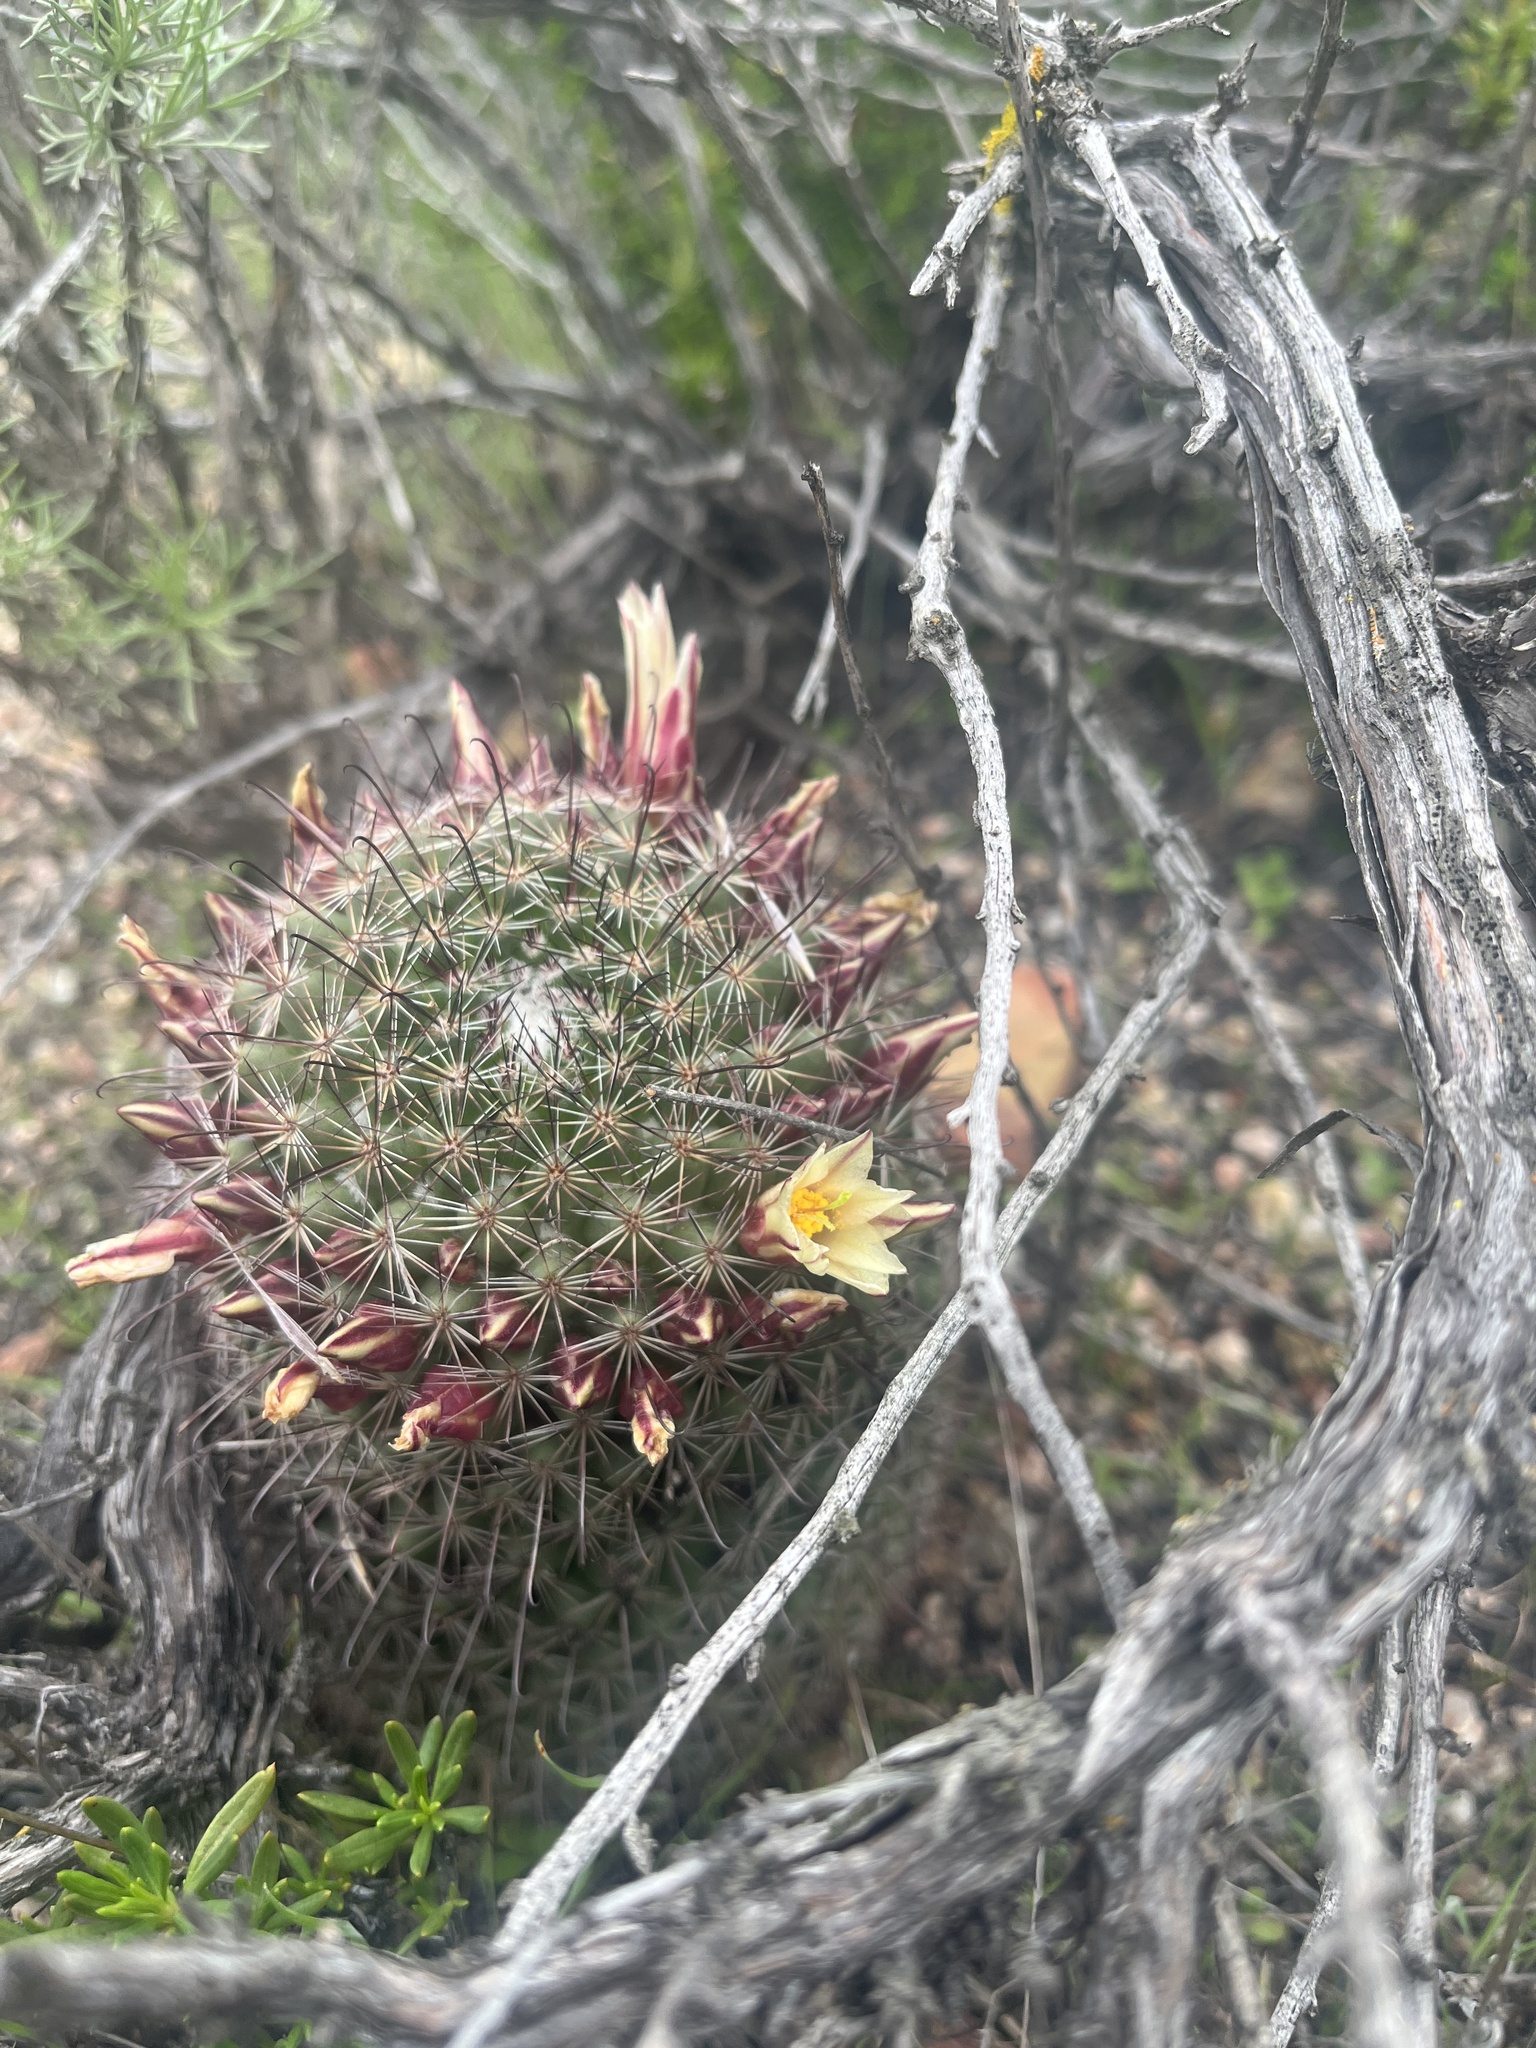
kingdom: Plantae
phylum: Tracheophyta
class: Magnoliopsida
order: Caryophyllales
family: Cactaceae
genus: Cochemiea
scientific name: Cochemiea dioica
